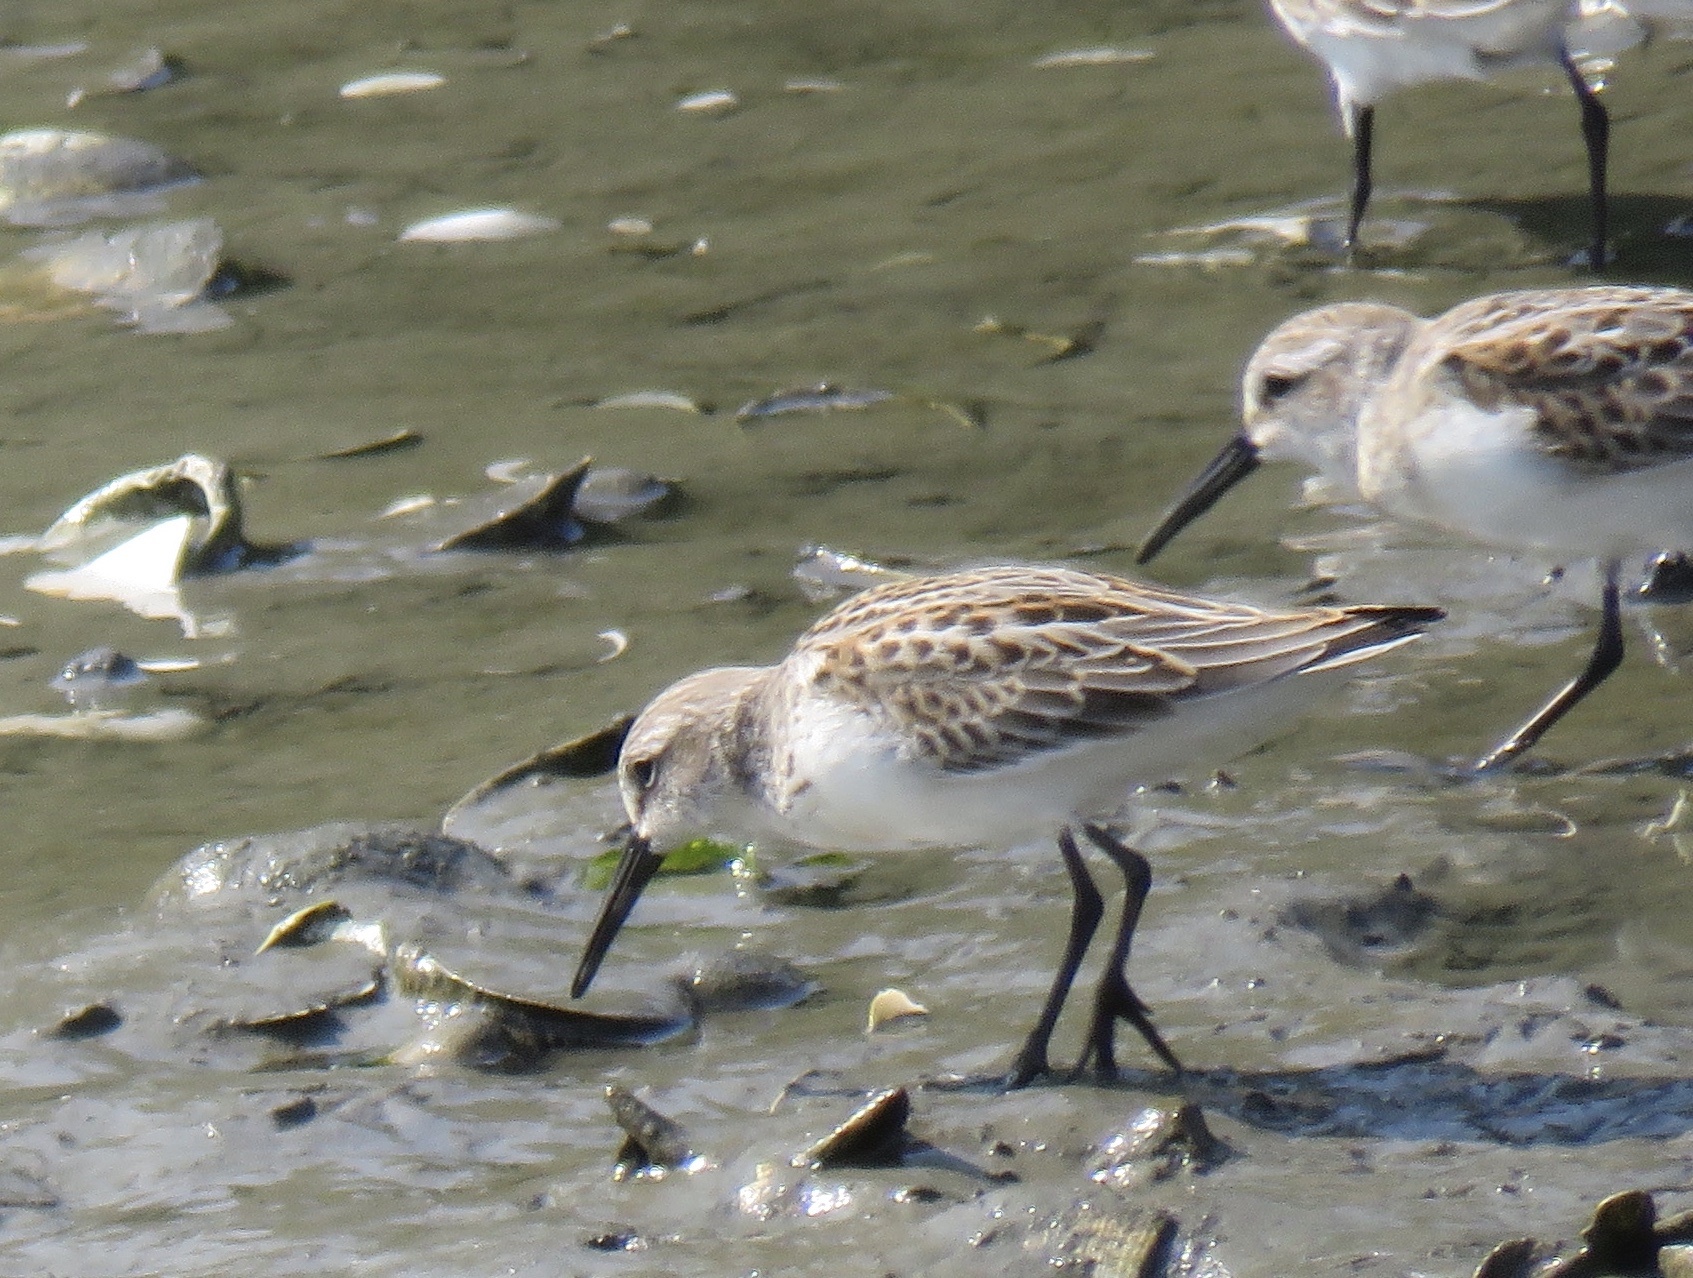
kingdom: Animalia
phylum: Chordata
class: Aves
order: Charadriiformes
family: Scolopacidae
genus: Calidris
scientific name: Calidris mauri
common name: Western sandpiper
